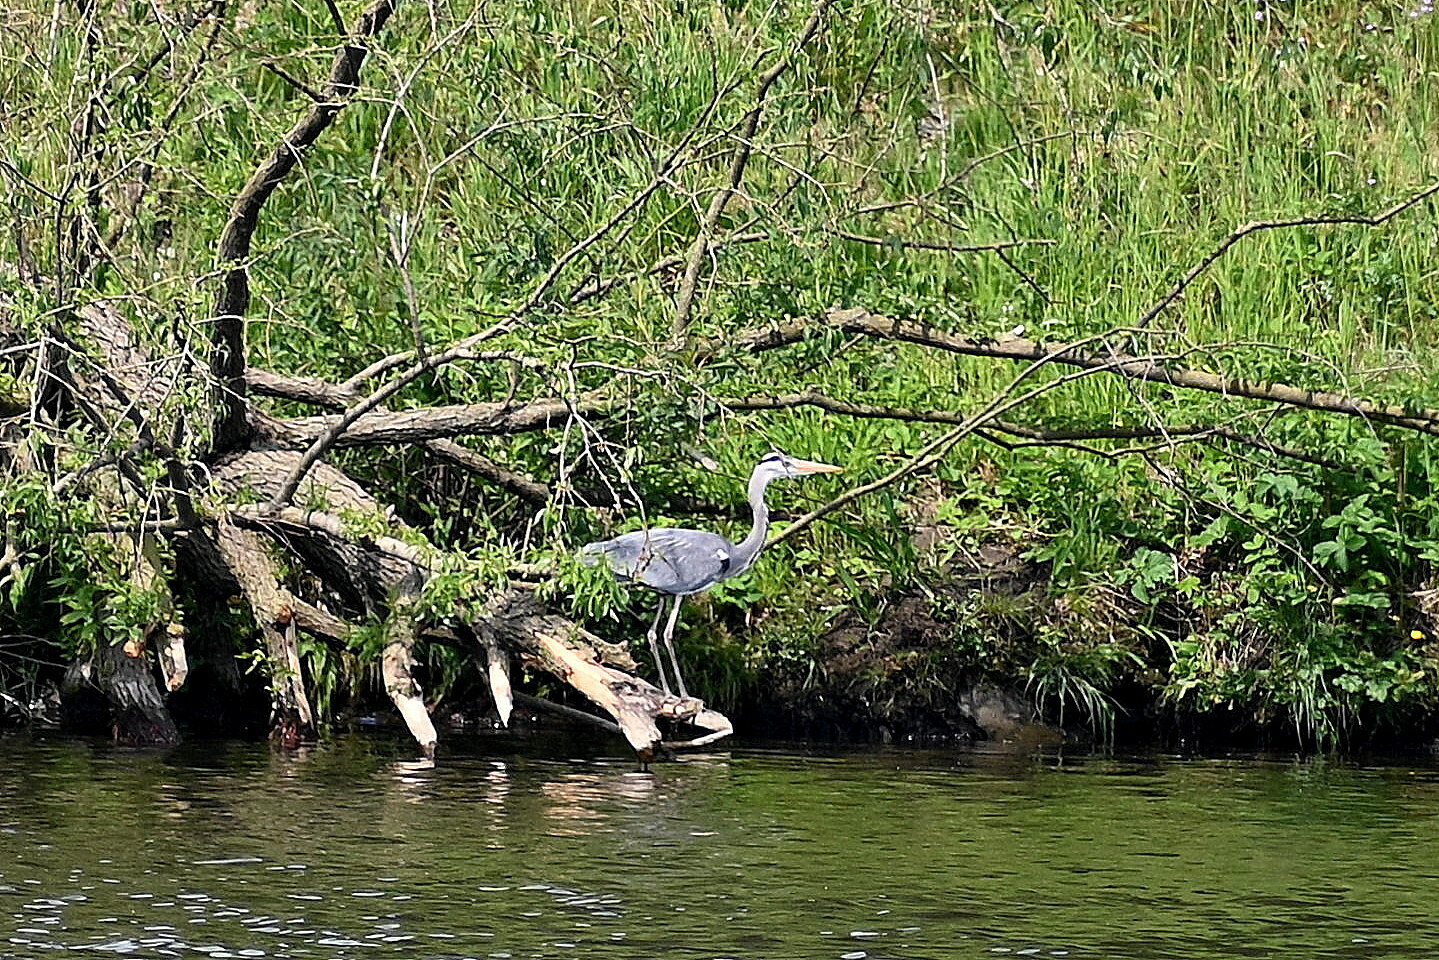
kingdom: Animalia
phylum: Chordata
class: Aves
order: Pelecaniformes
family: Ardeidae
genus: Ardea
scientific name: Ardea cinerea
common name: Grey heron
